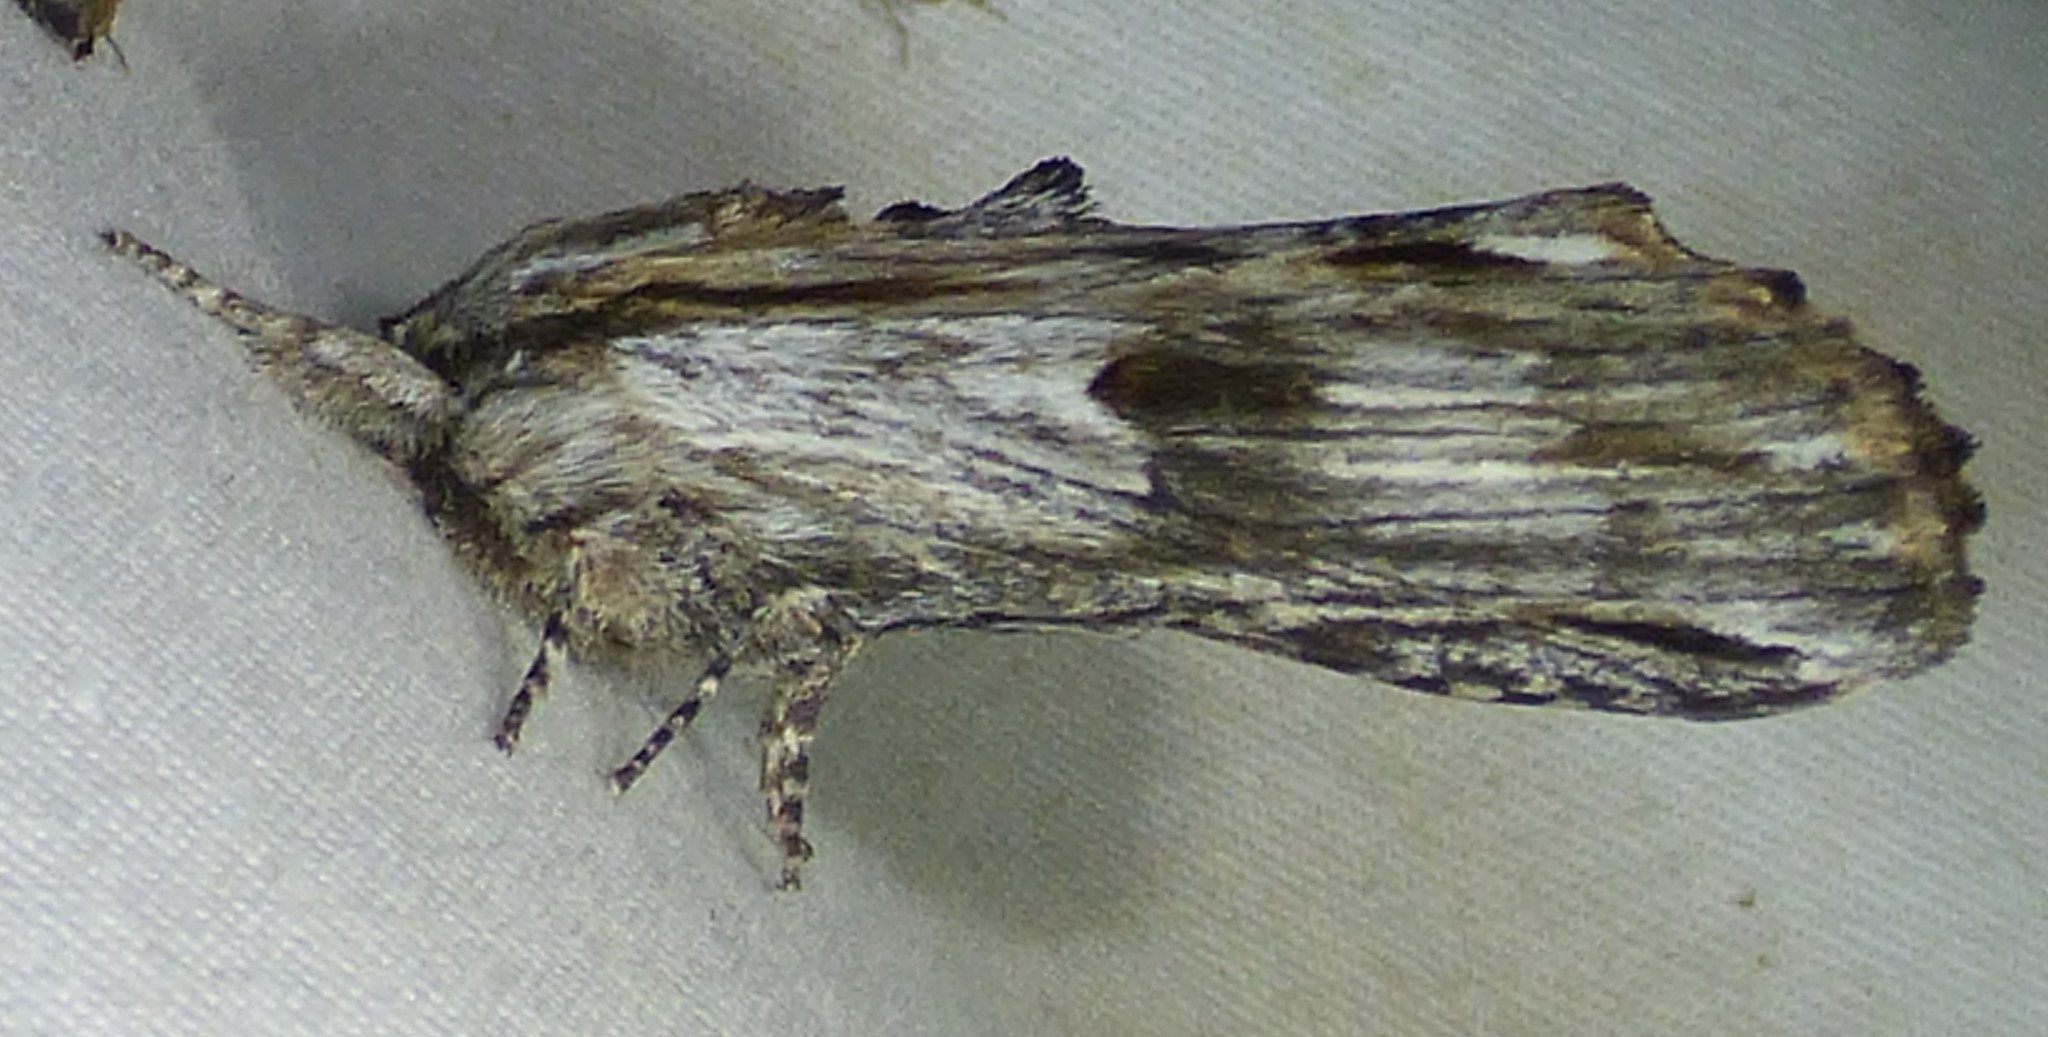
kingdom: Animalia
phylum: Arthropoda
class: Insecta
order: Lepidoptera
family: Notodontidae
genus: Oligocentria
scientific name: Oligocentria Ianassa lignicolor
